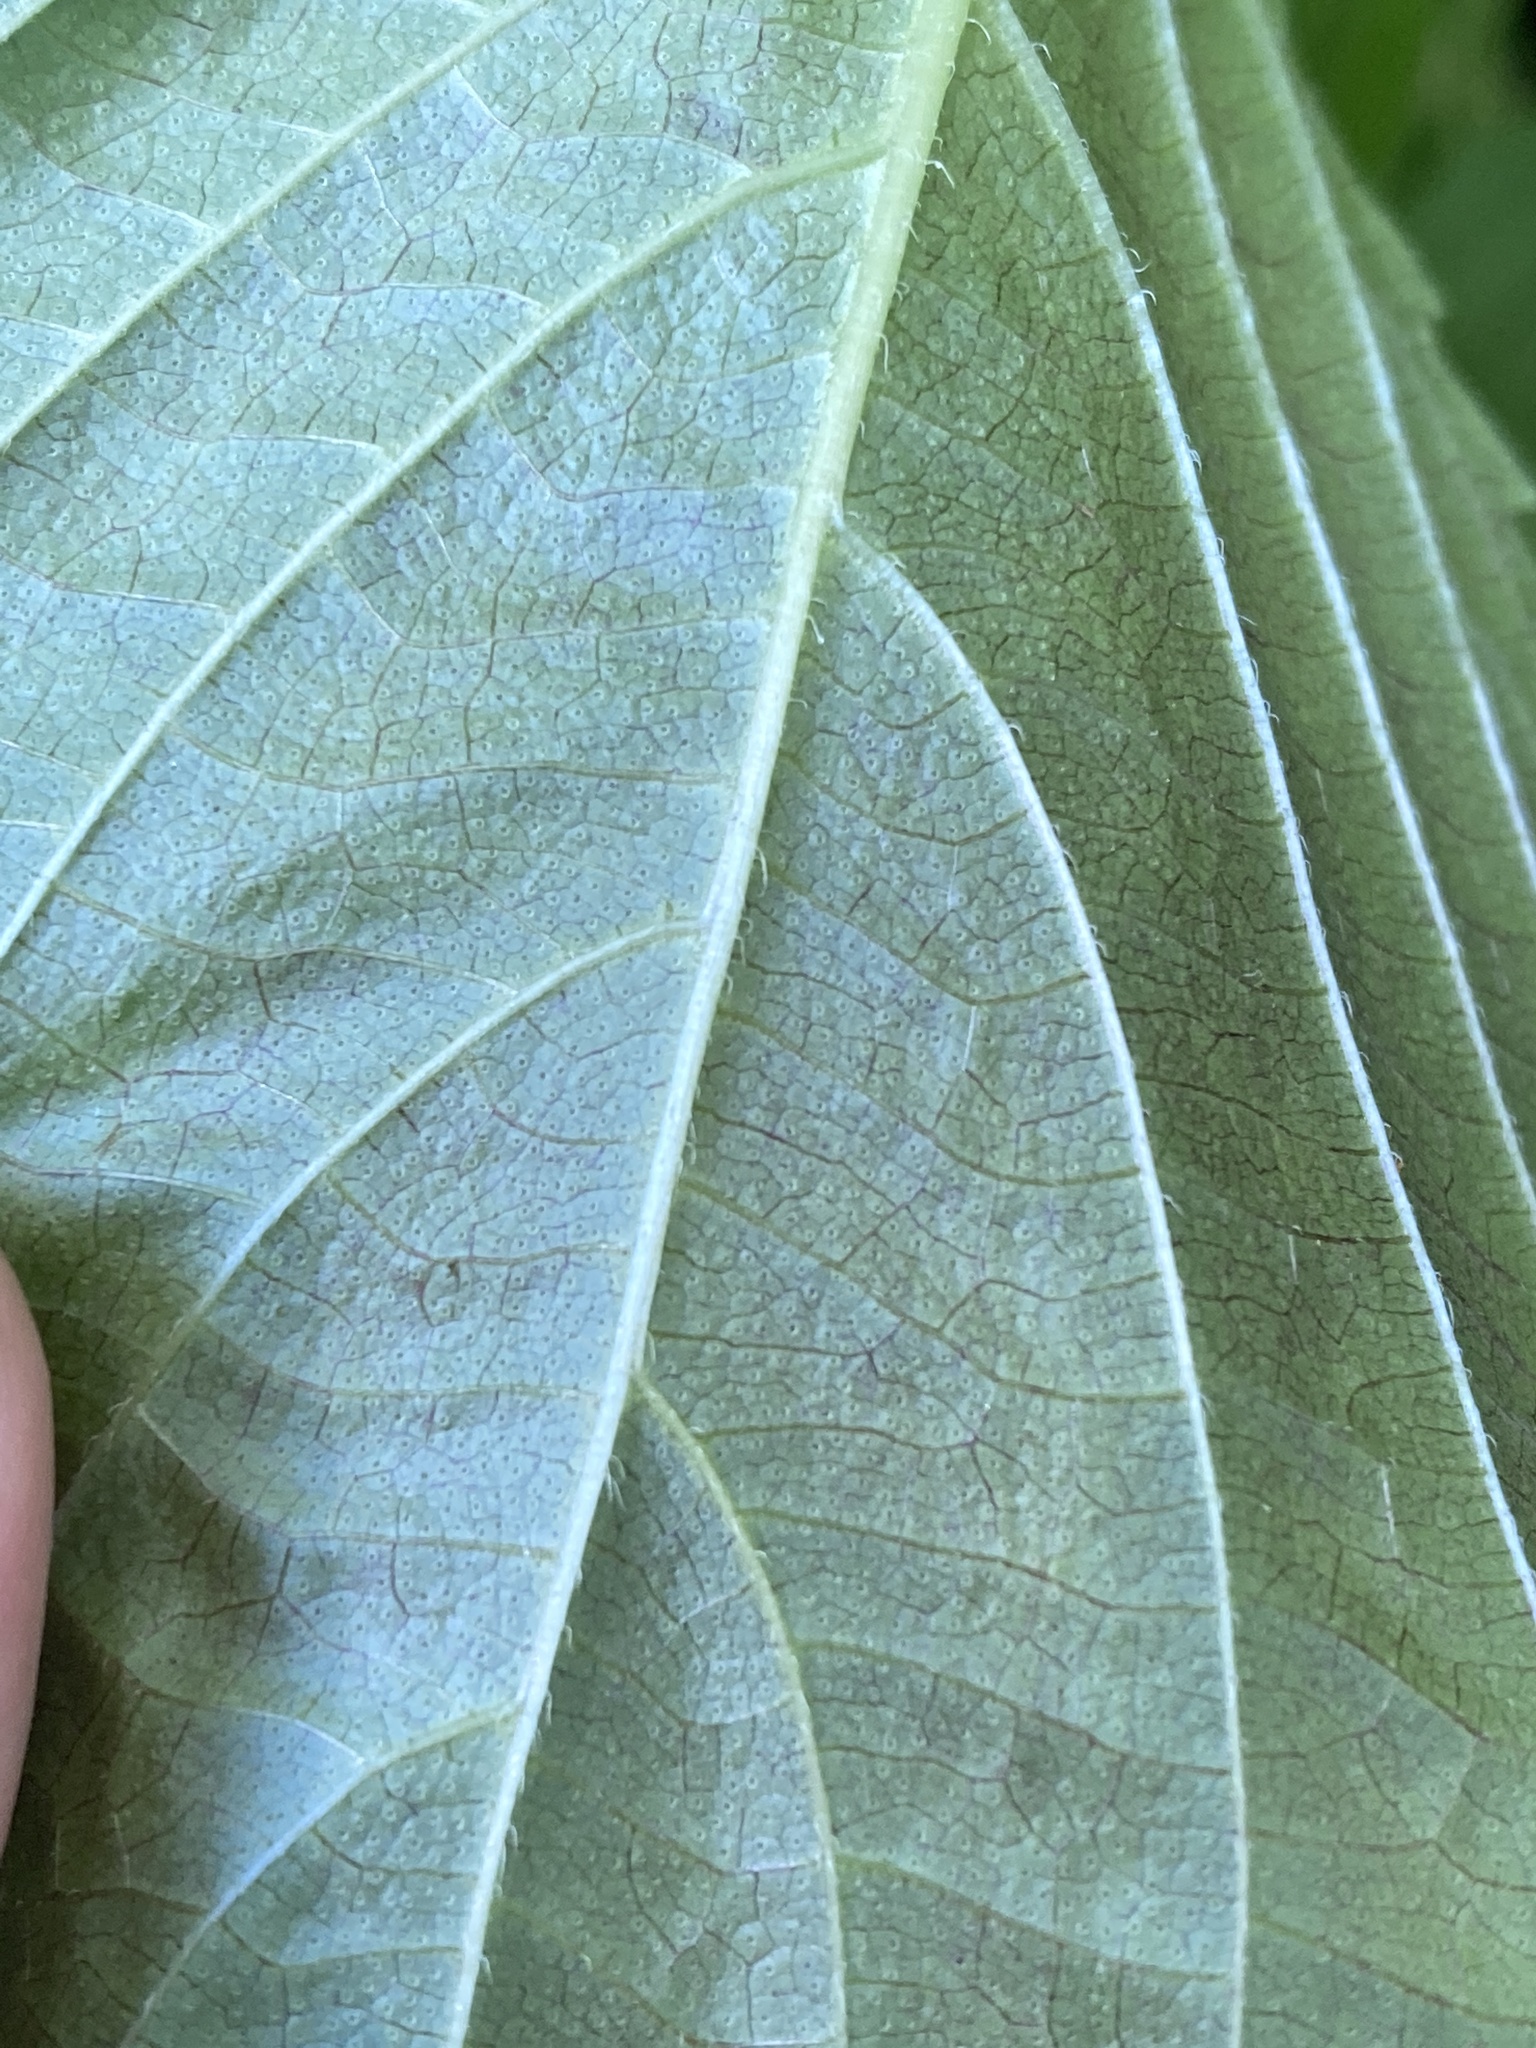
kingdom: Plantae
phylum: Tracheophyta
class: Magnoliopsida
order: Lamiales
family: Lamiaceae
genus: Perilla
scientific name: Perilla frutescens
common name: Perilla
